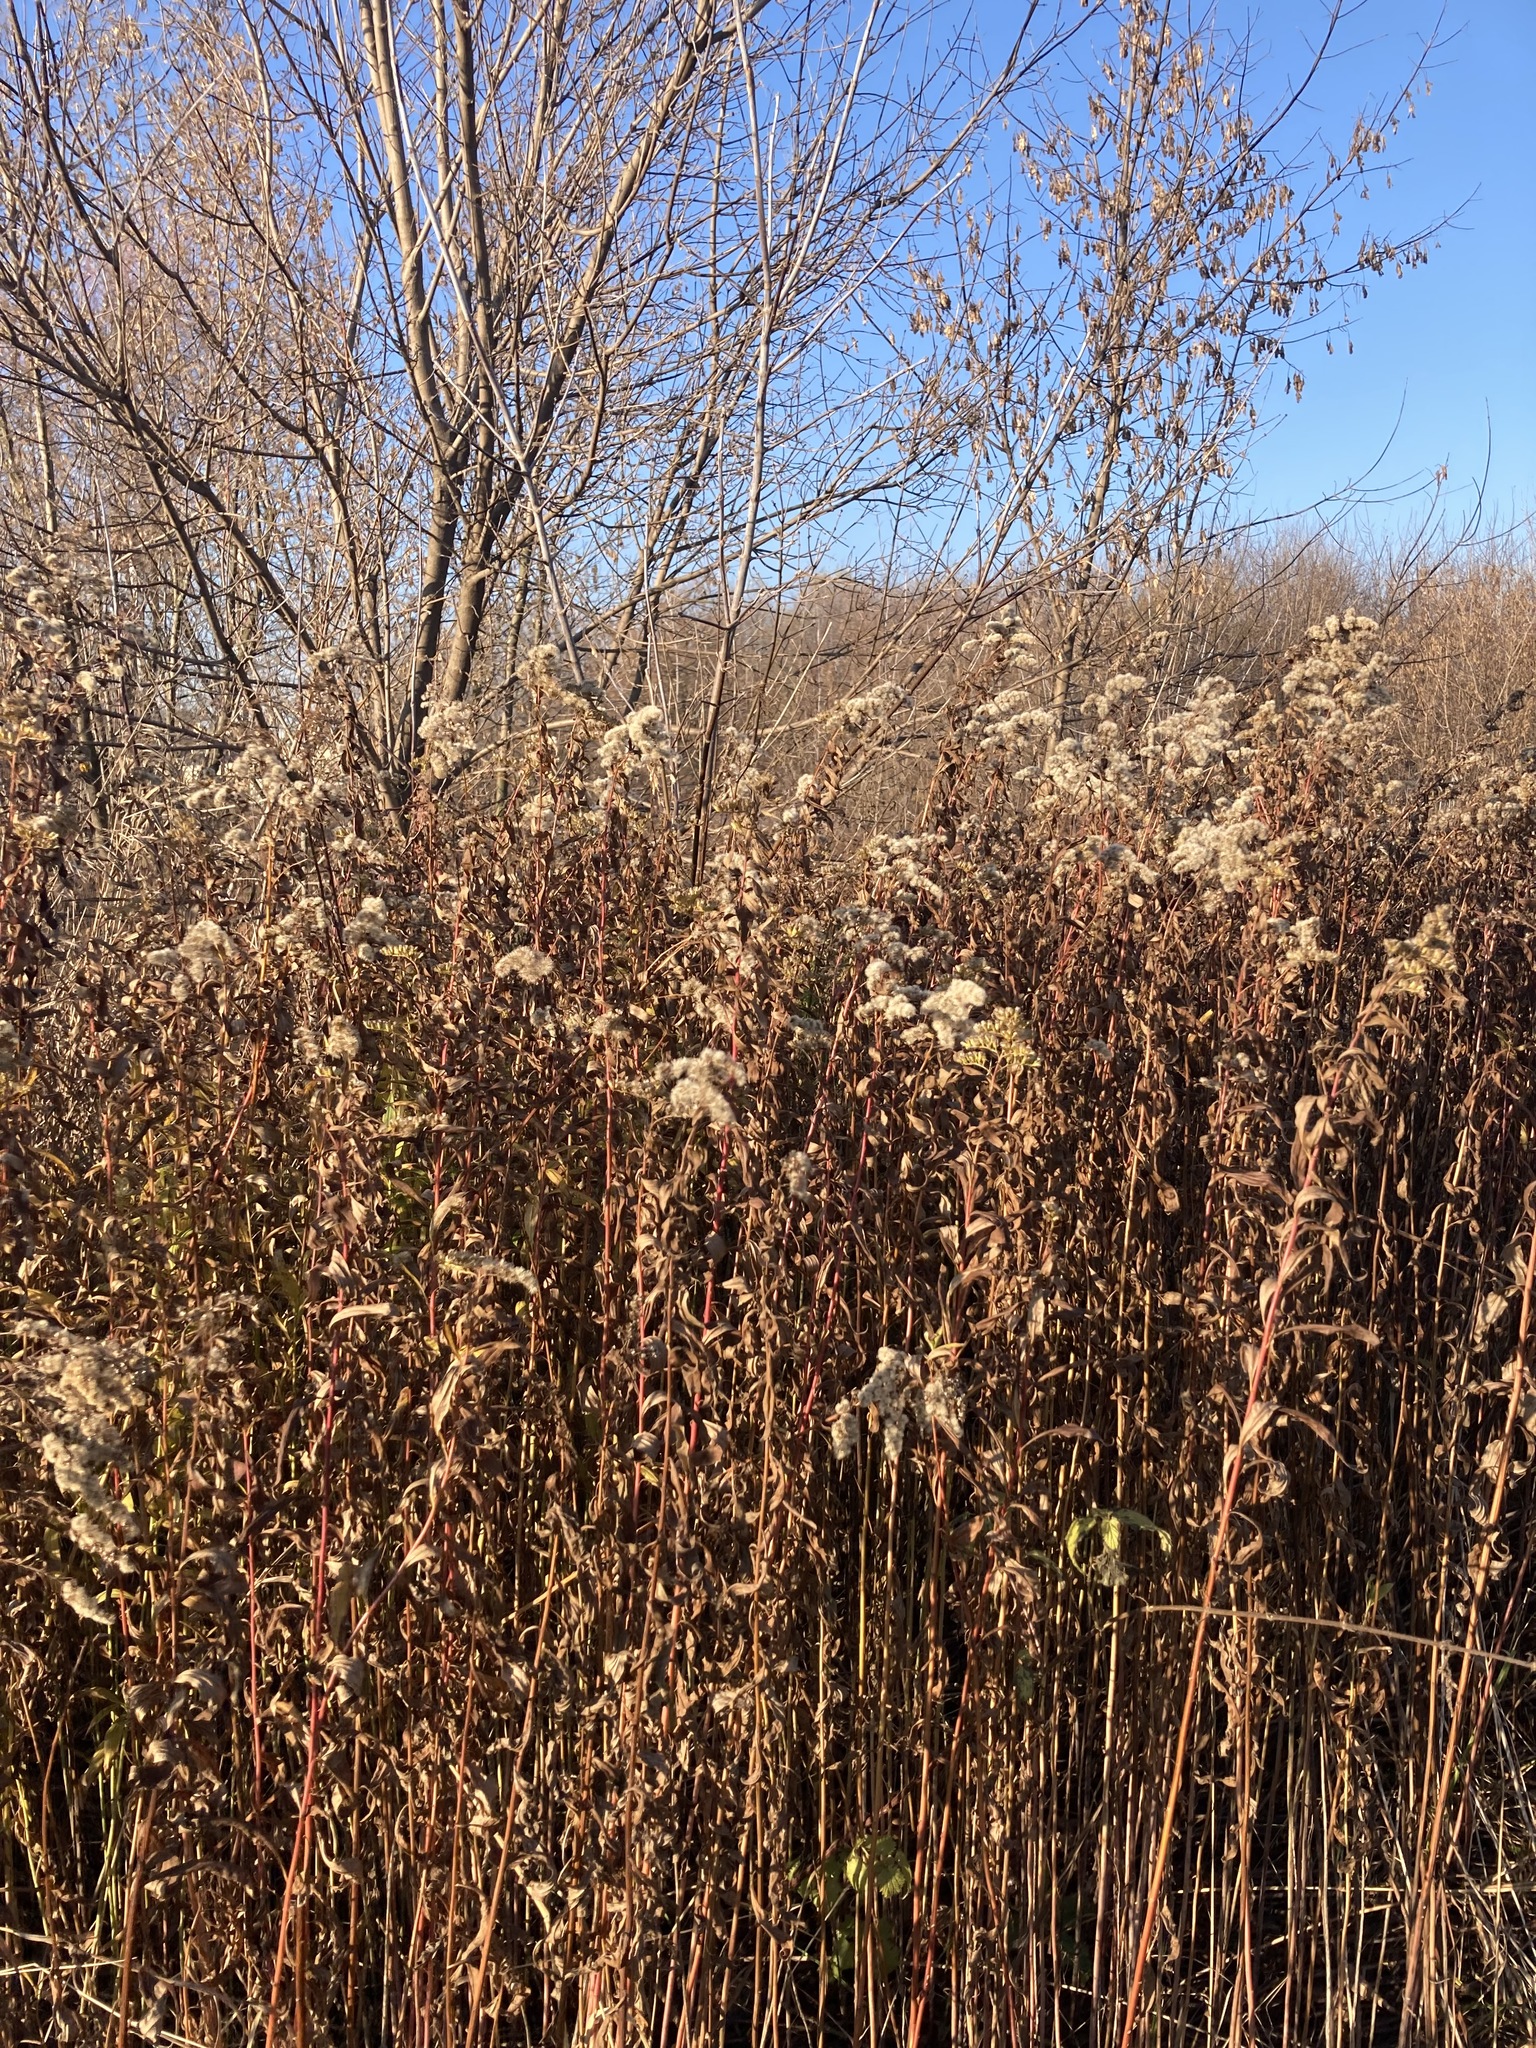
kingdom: Plantae
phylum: Tracheophyta
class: Magnoliopsida
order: Asterales
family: Asteraceae
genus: Solidago
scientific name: Solidago gigantea
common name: Giant goldenrod
